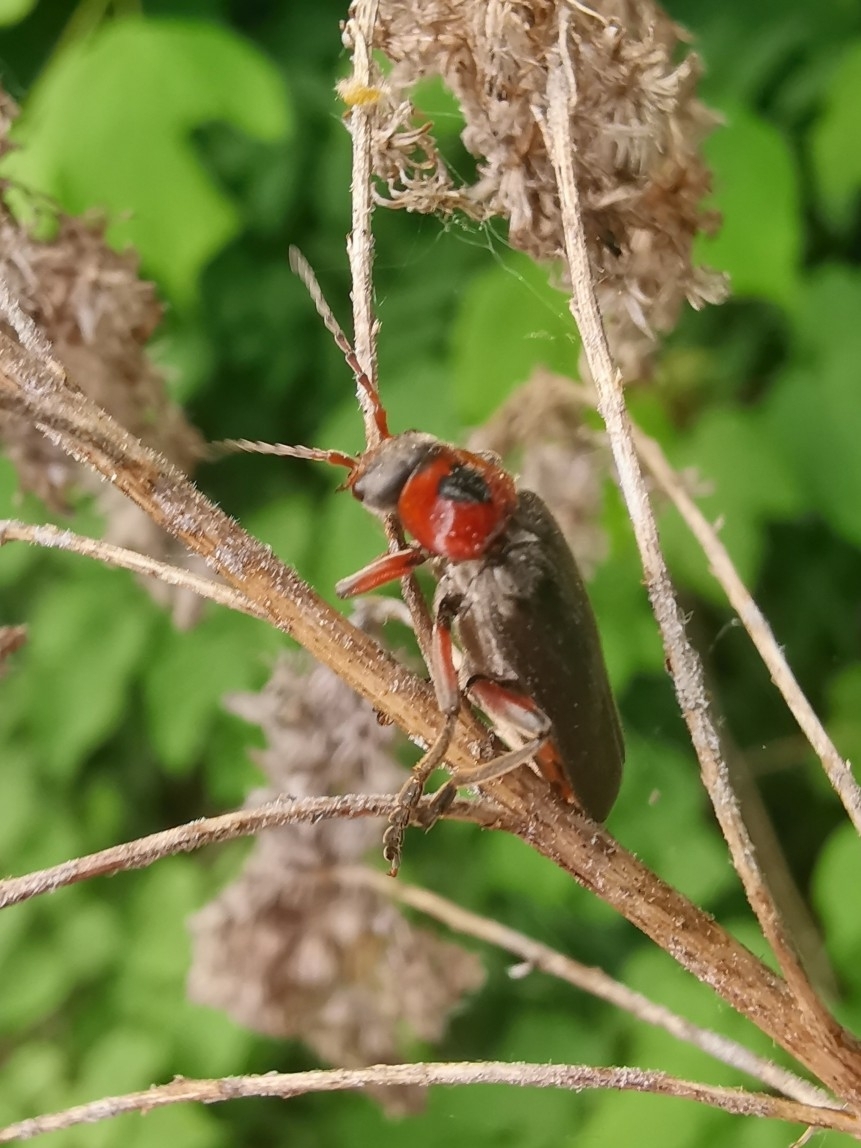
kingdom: Animalia
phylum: Arthropoda
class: Insecta
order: Coleoptera
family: Cantharidae
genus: Cantharis
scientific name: Cantharis rustica
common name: Soldier beetle
